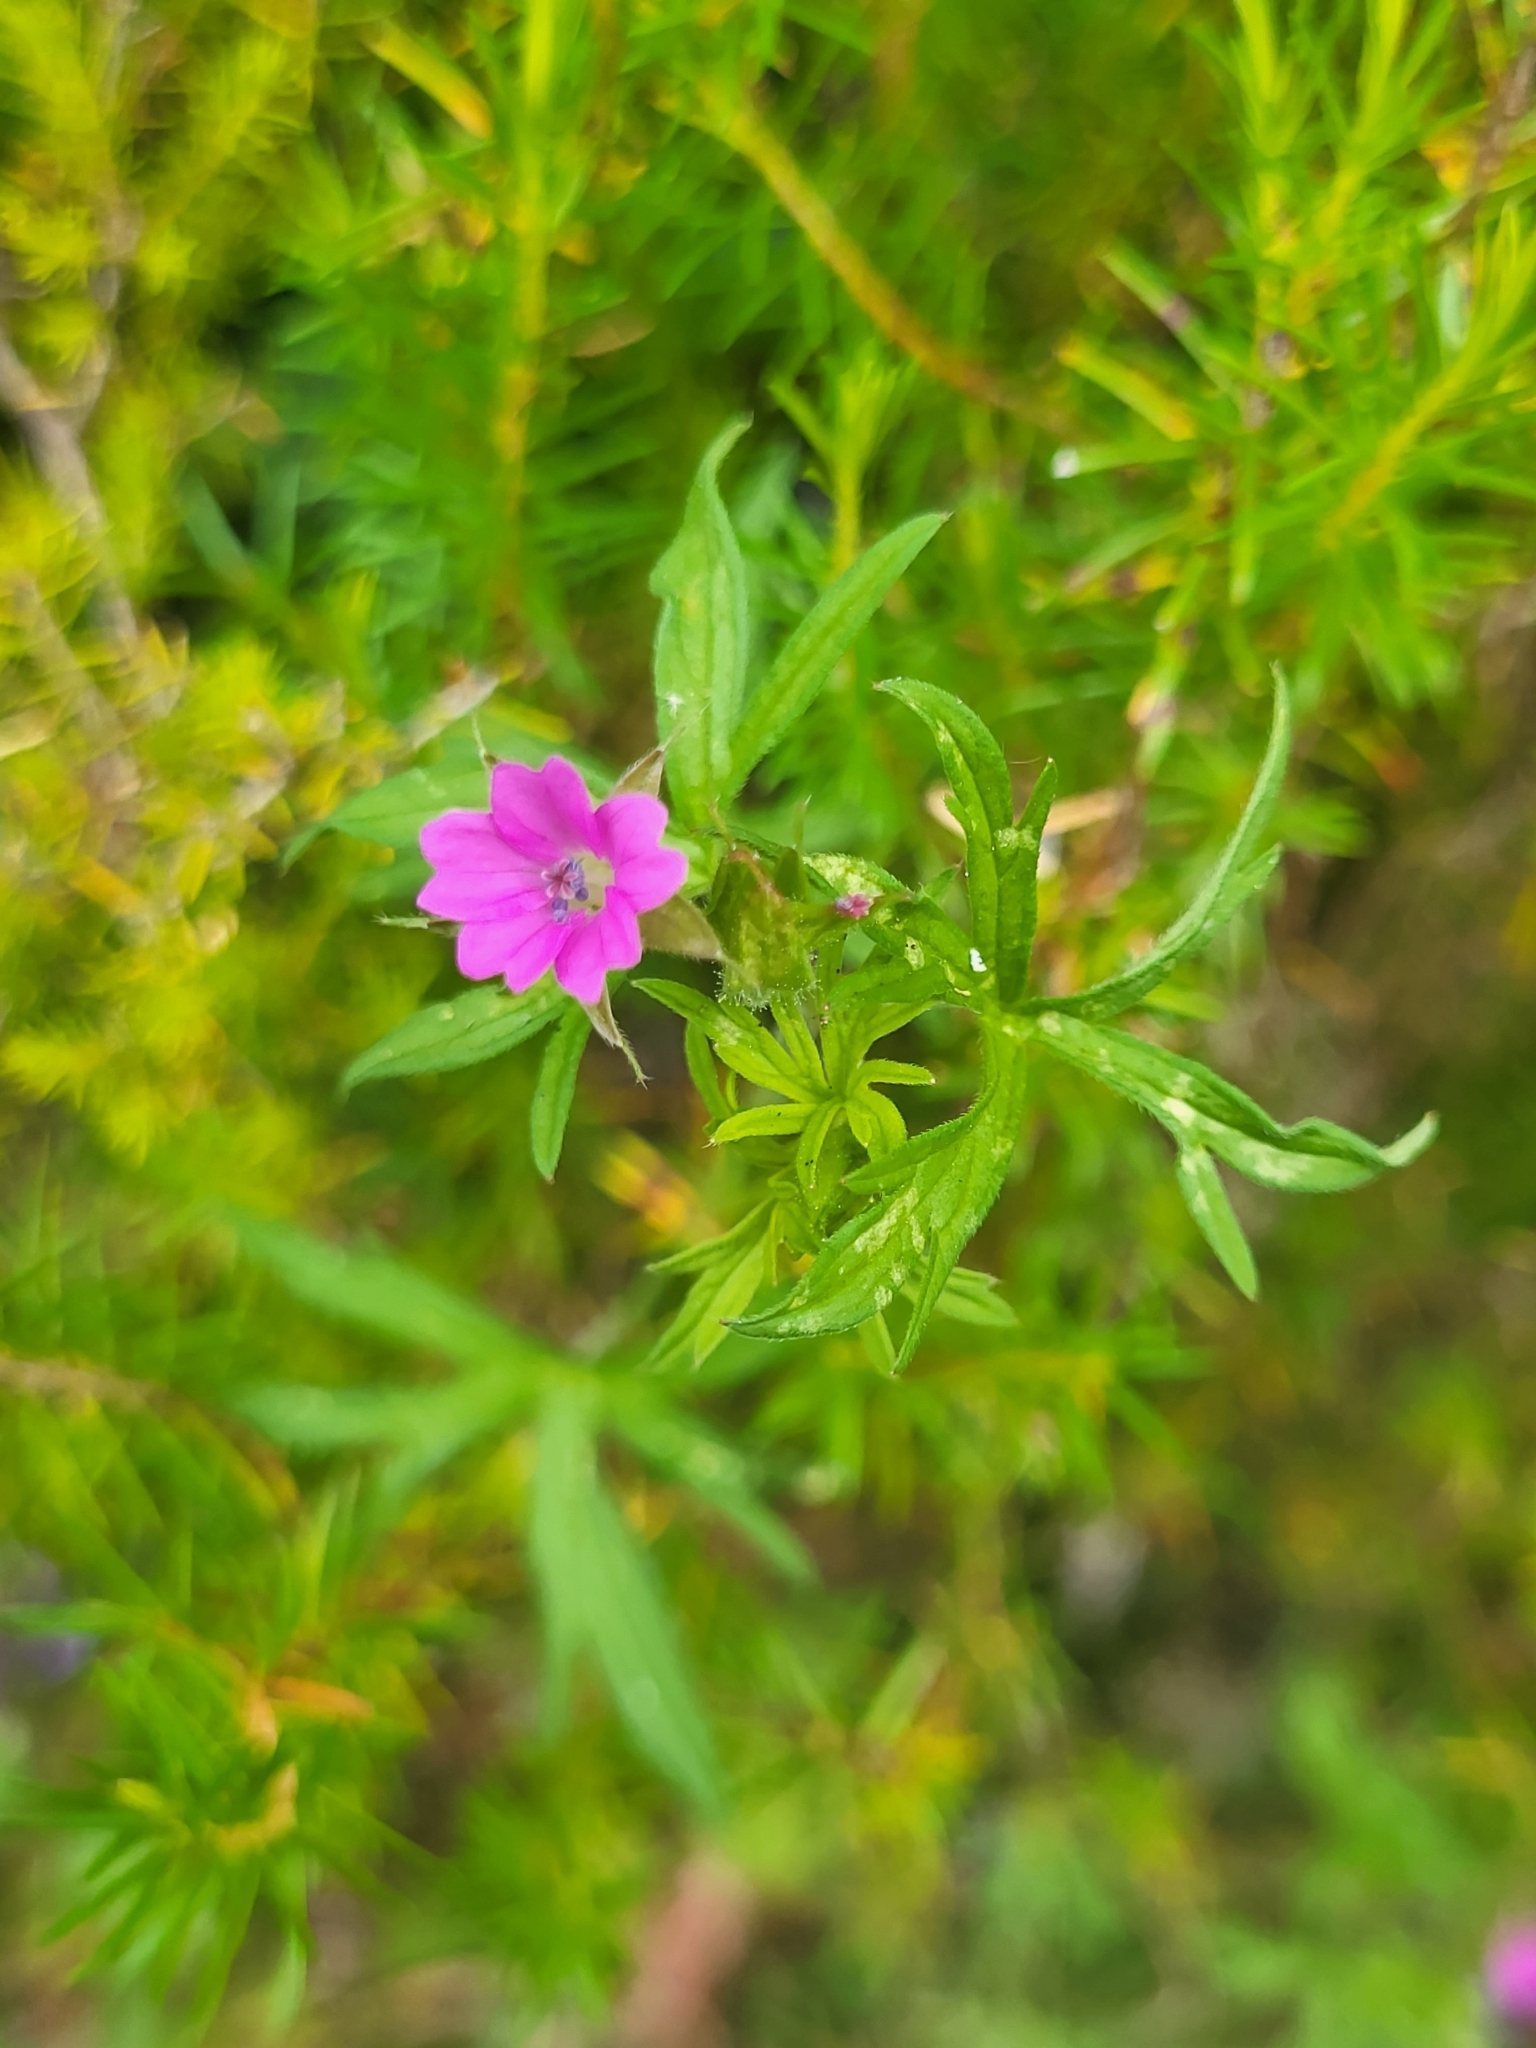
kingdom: Plantae
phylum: Tracheophyta
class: Magnoliopsida
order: Geraniales
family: Geraniaceae
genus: Geranium
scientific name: Geranium dissectum
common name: Cut-leaved crane's-bill
